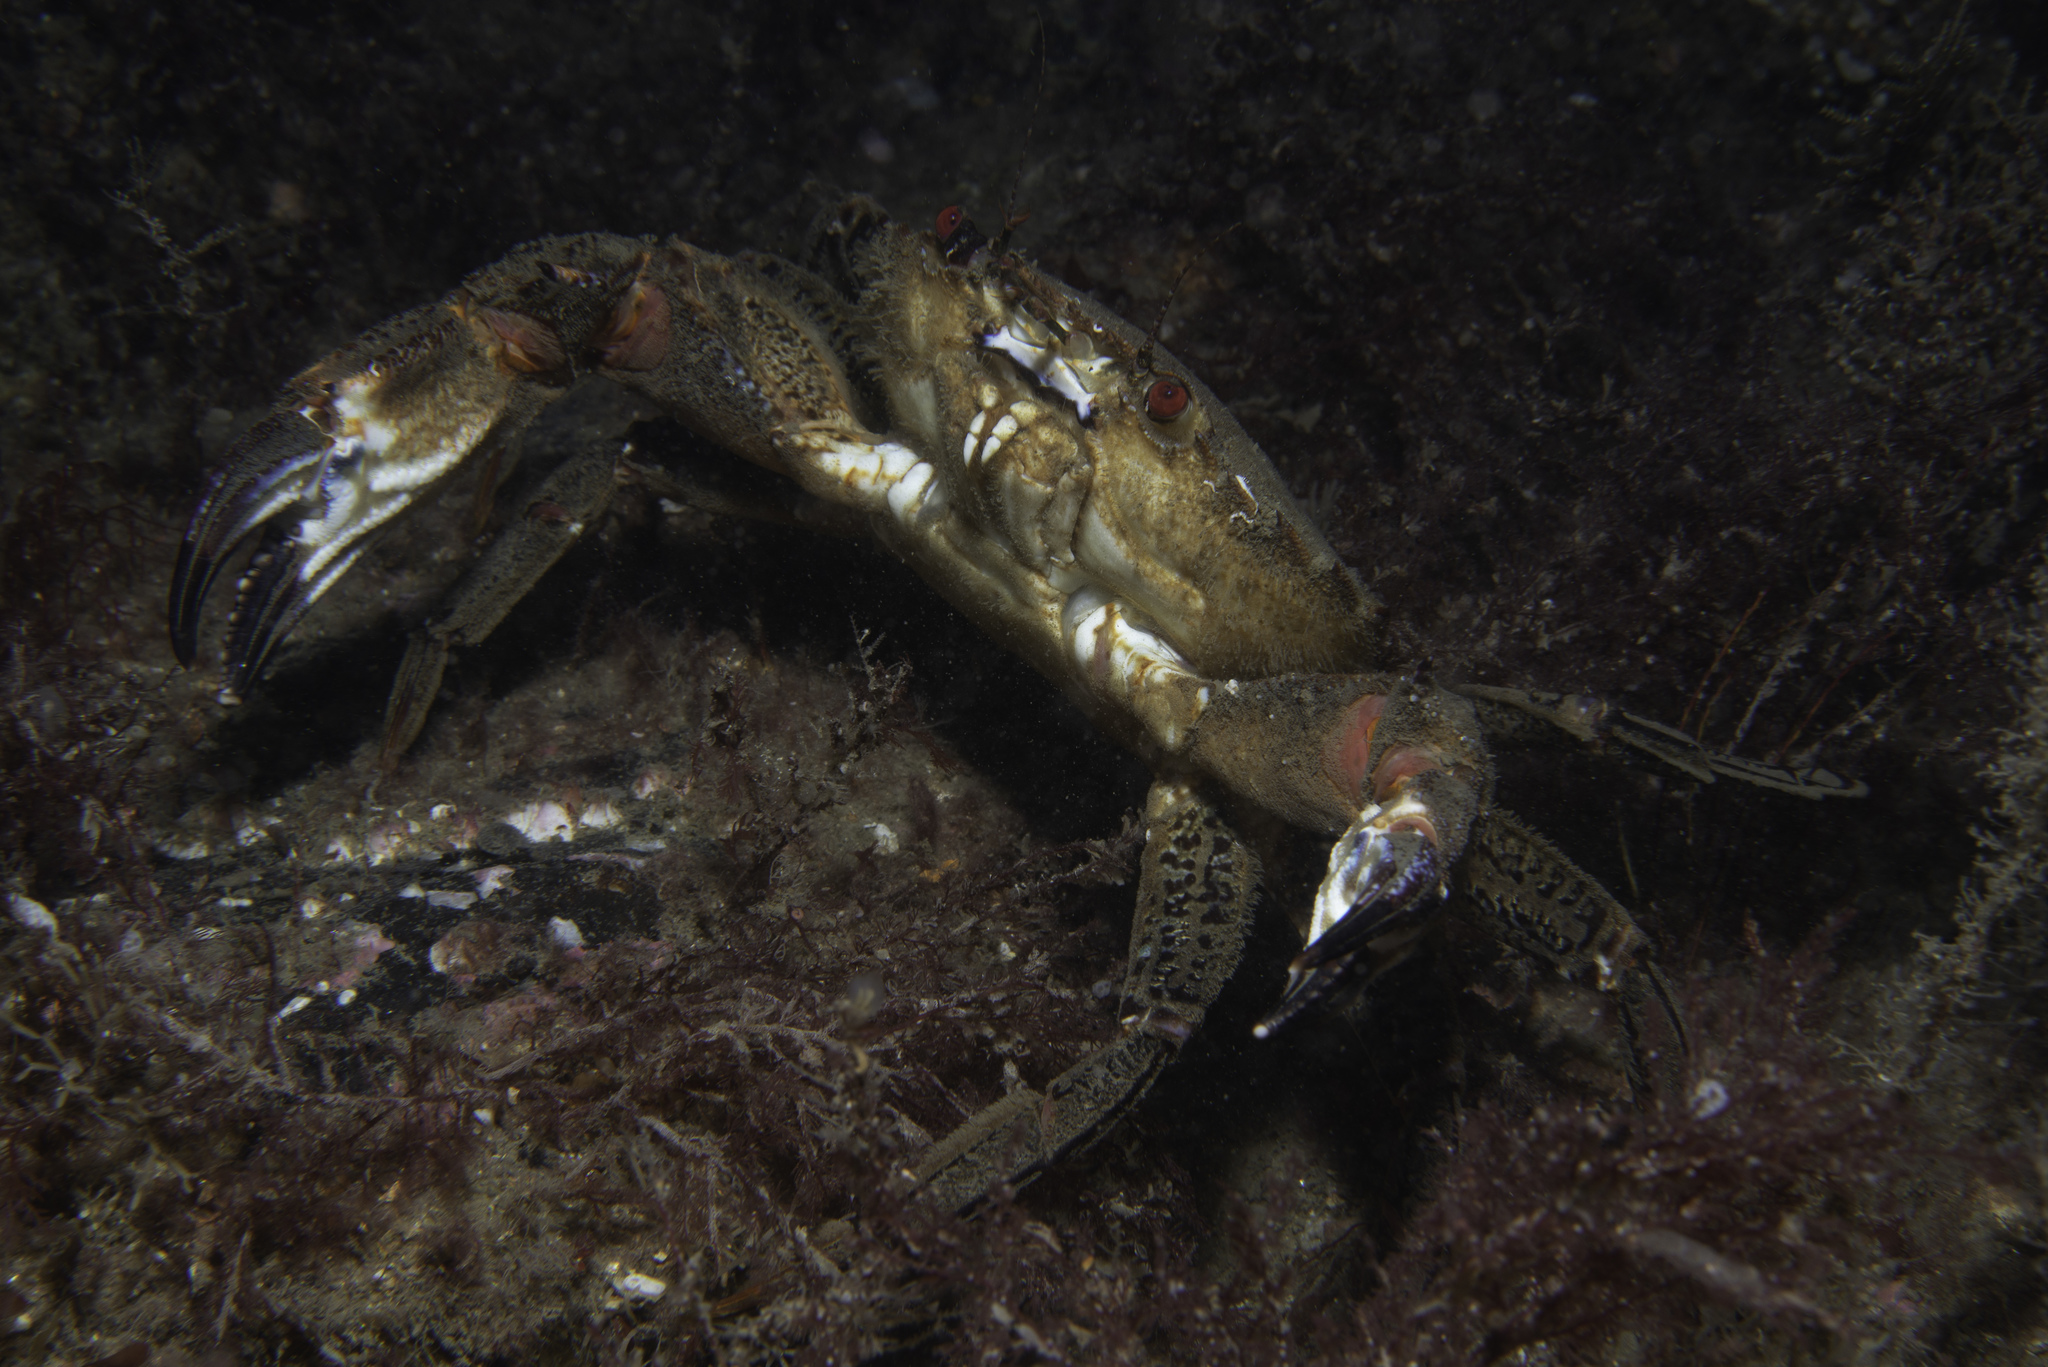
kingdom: Animalia
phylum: Arthropoda
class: Malacostraca
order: Decapoda
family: Polybiidae
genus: Necora
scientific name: Necora puber
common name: Velvet swimming crab
